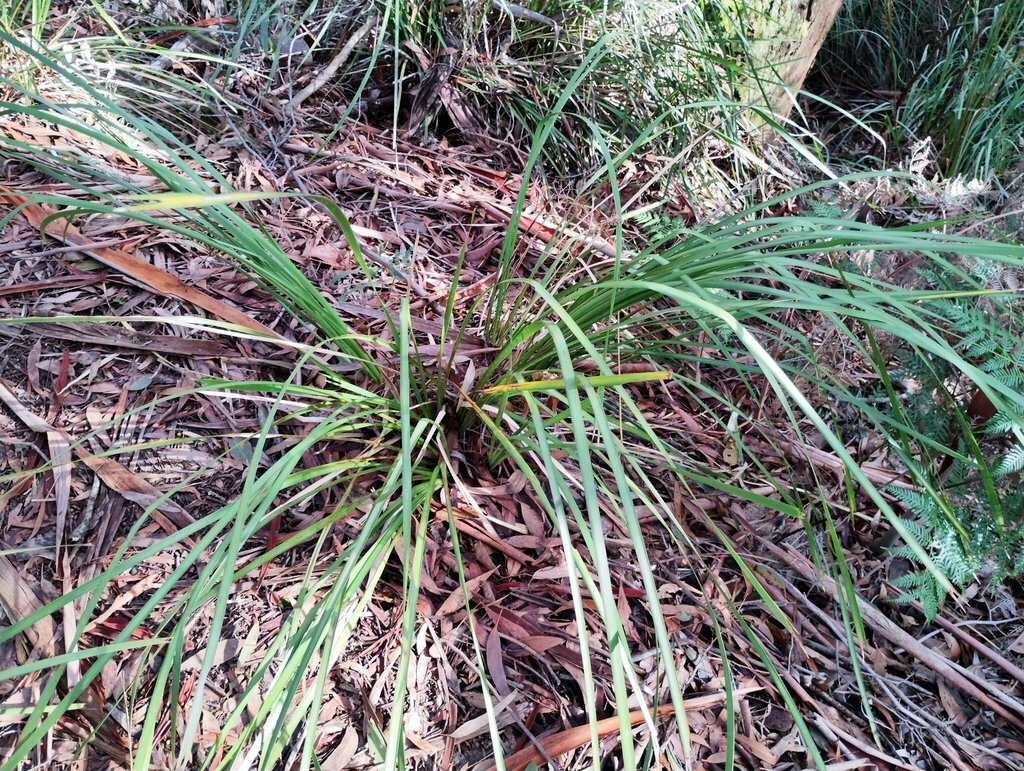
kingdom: Plantae
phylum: Tracheophyta
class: Liliopsida
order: Asparagales
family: Asparagaceae
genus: Lomandra
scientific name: Lomandra longifolia
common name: Longleaf mat-rush
